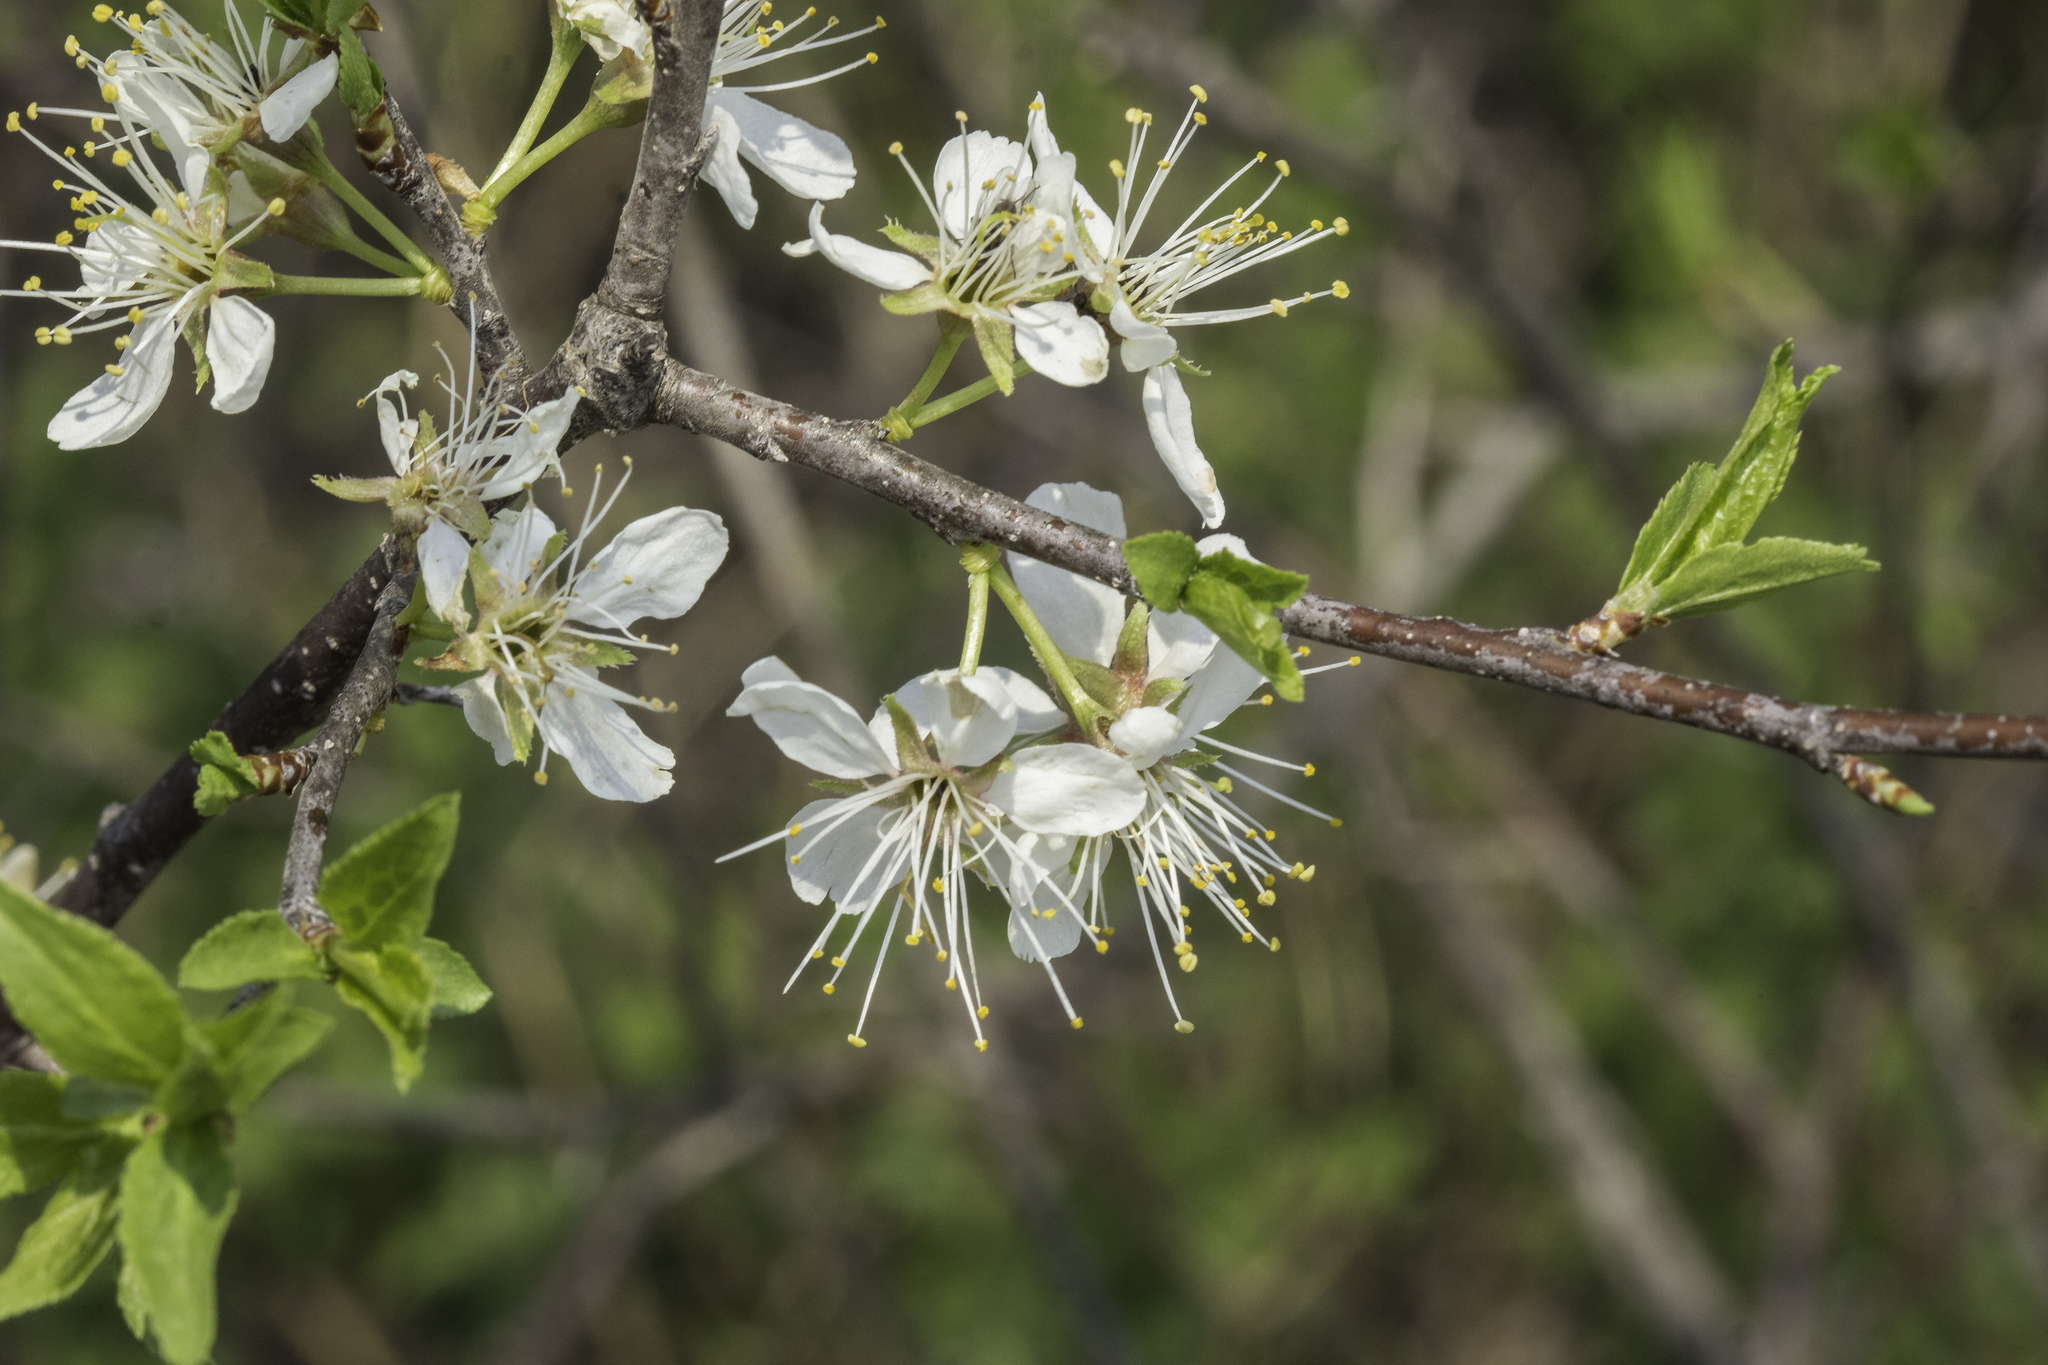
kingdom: Plantae
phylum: Tracheophyta
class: Magnoliopsida
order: Rosales
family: Rosaceae
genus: Prunus
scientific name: Prunus americana
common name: American plum
